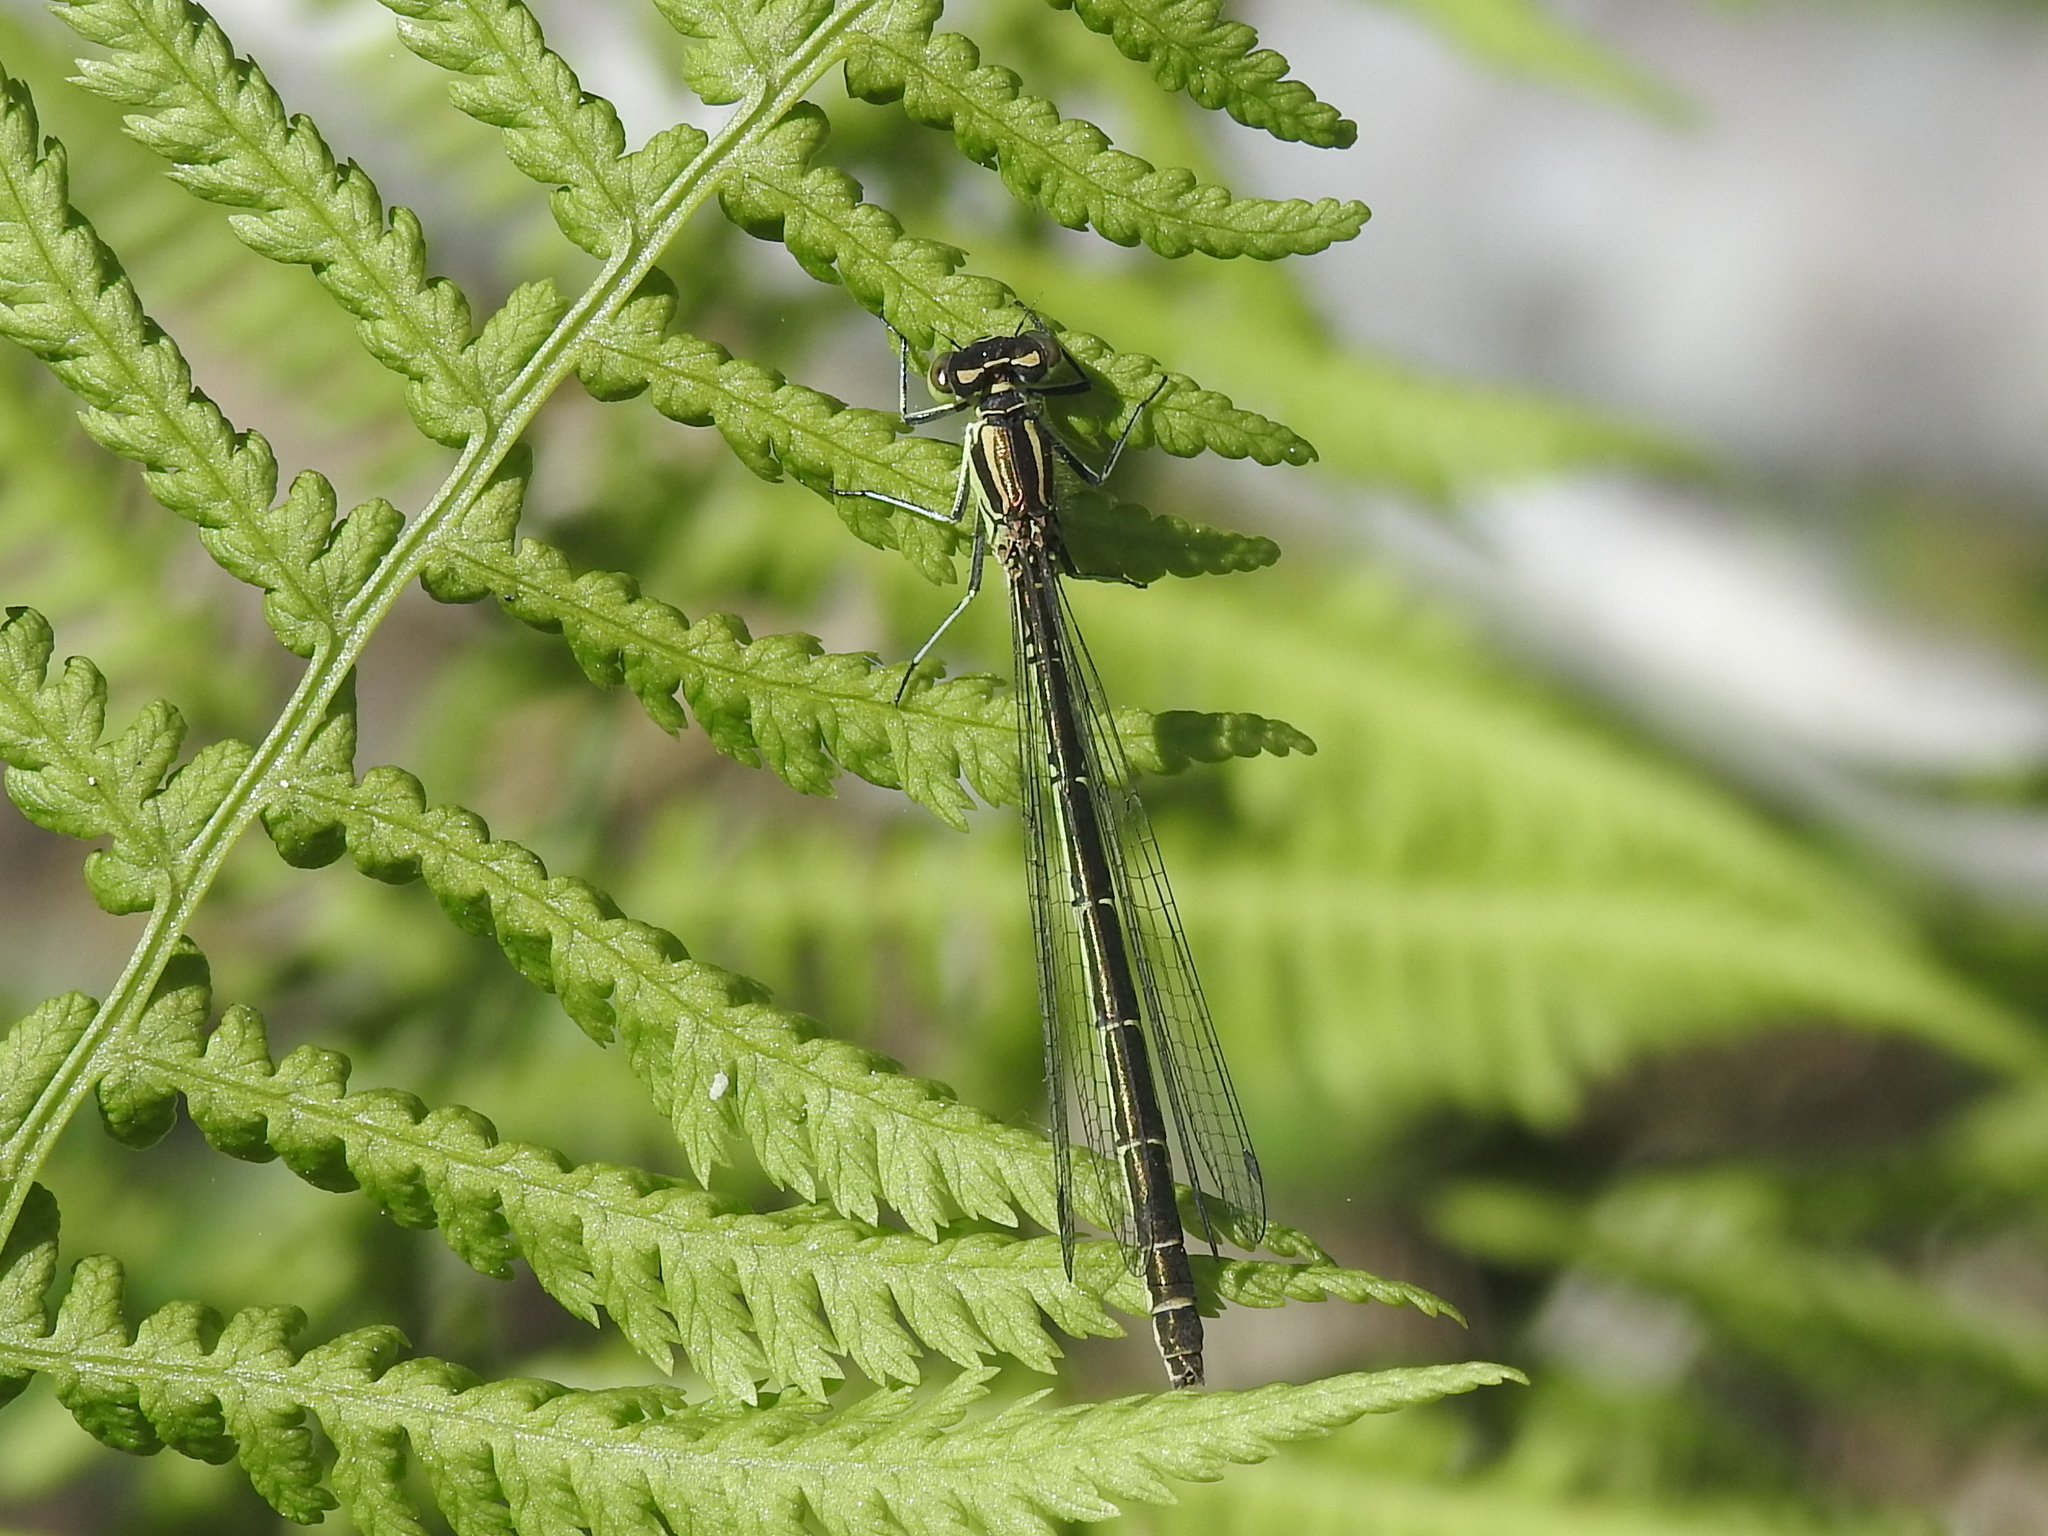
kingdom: Animalia
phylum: Arthropoda
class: Insecta
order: Odonata
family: Coenagrionidae
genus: Coenagrion
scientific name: Coenagrion hastulatum
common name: Spearhead bluet
